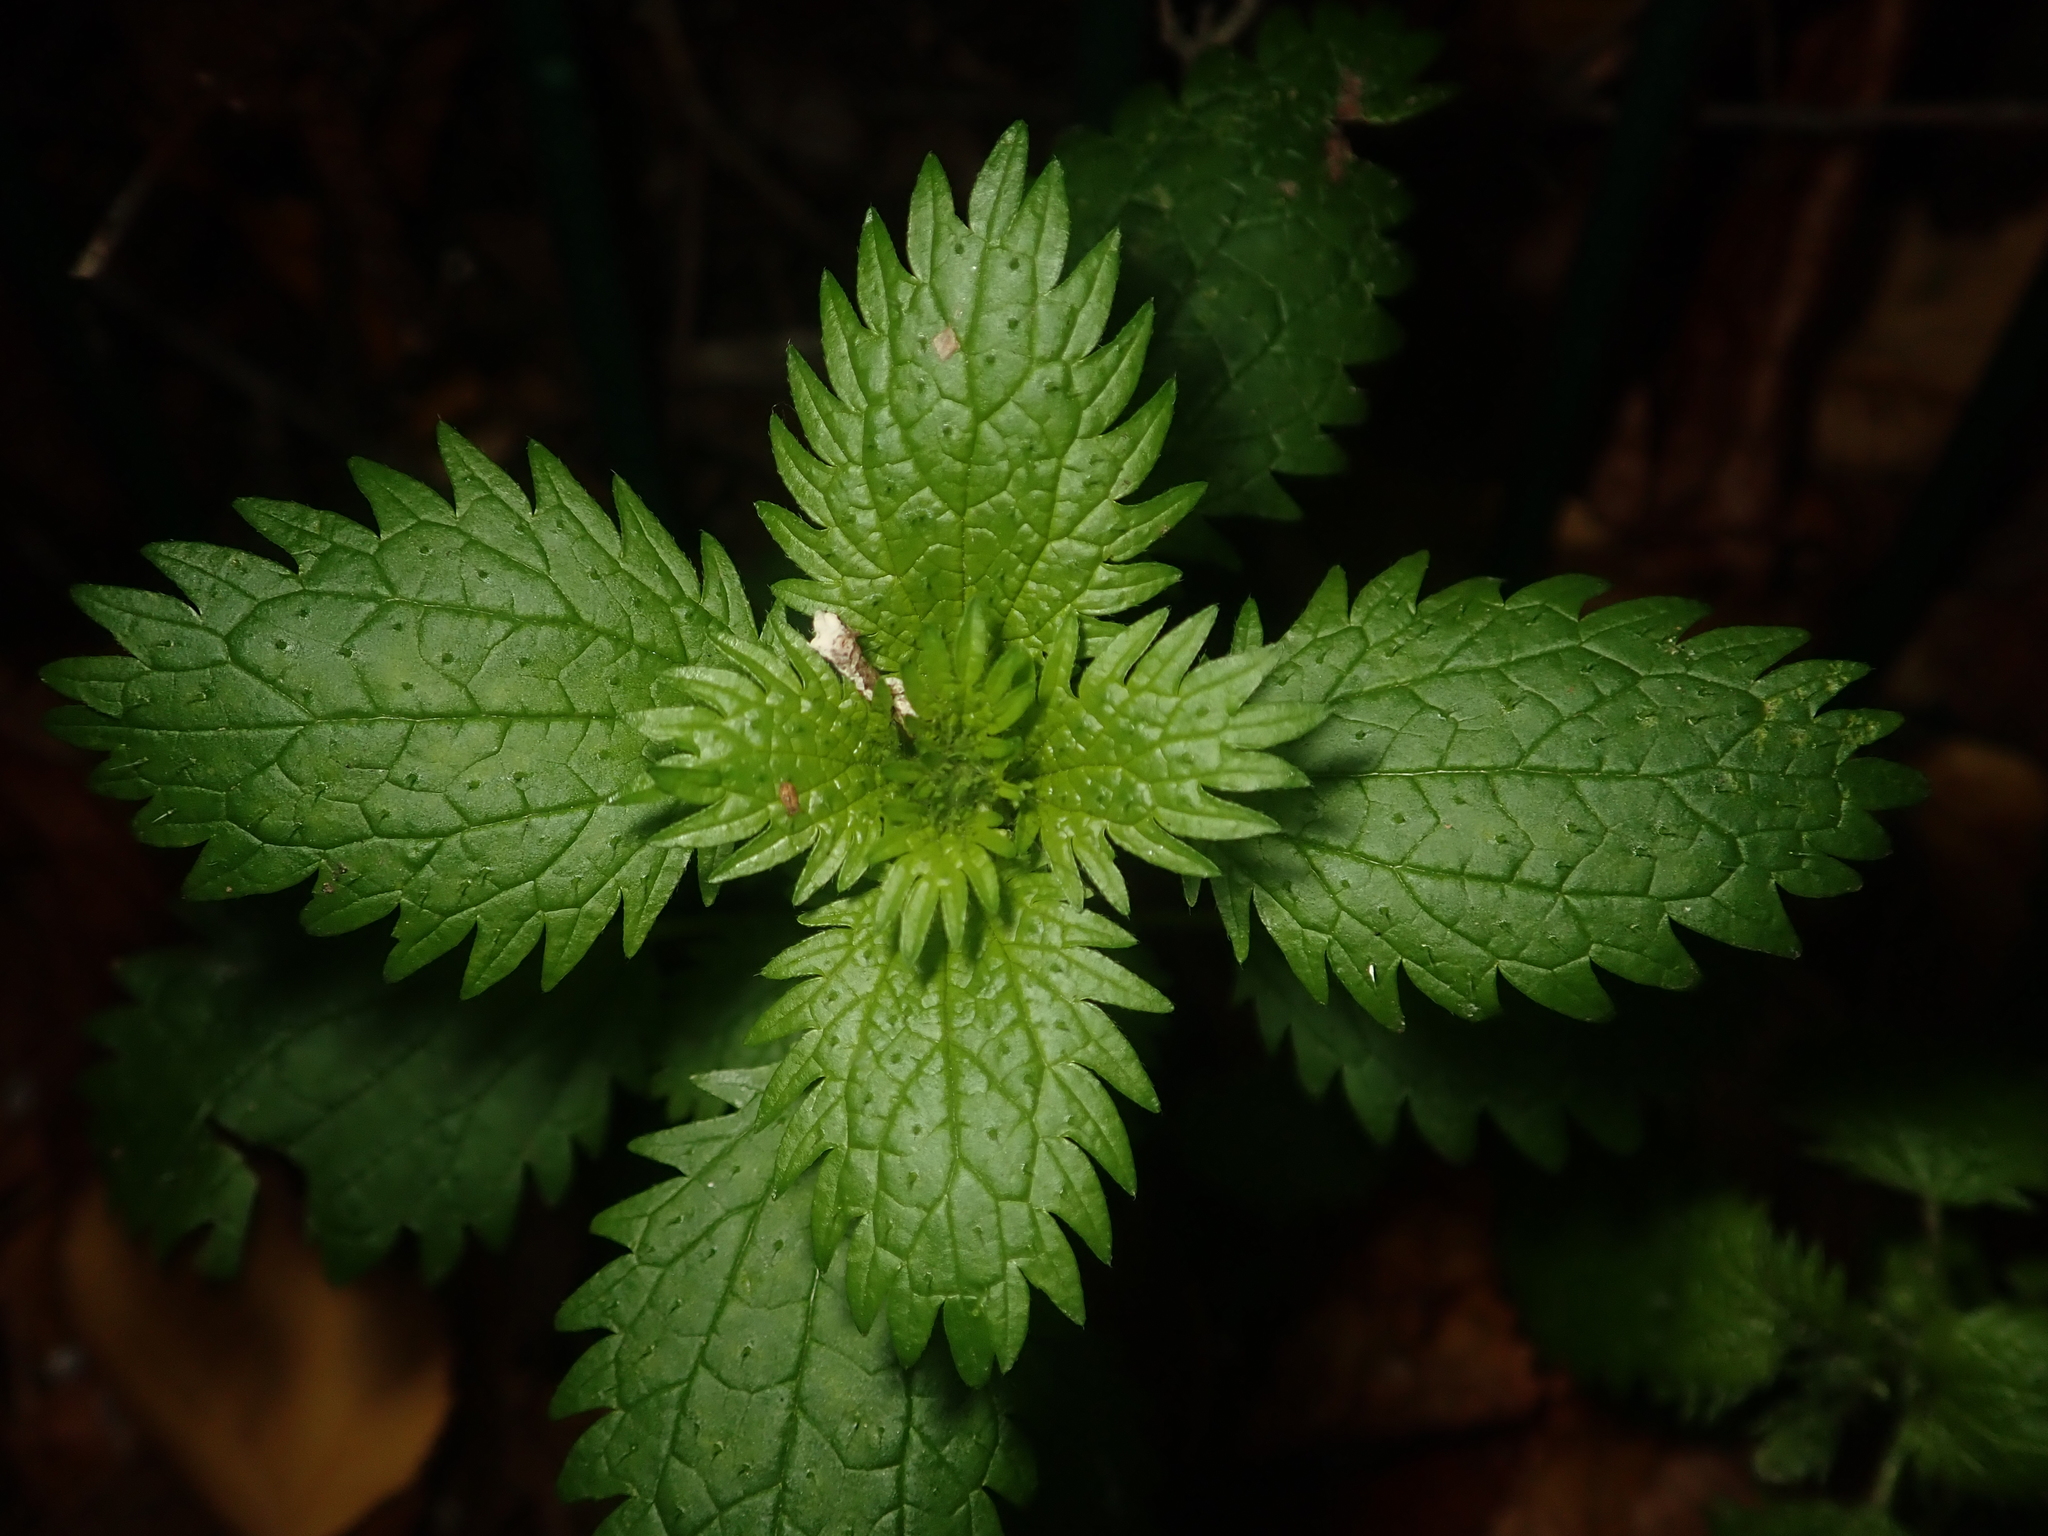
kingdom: Plantae
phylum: Tracheophyta
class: Magnoliopsida
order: Rosales
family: Urticaceae
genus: Urtica
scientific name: Urtica urens
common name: Dwarf nettle
